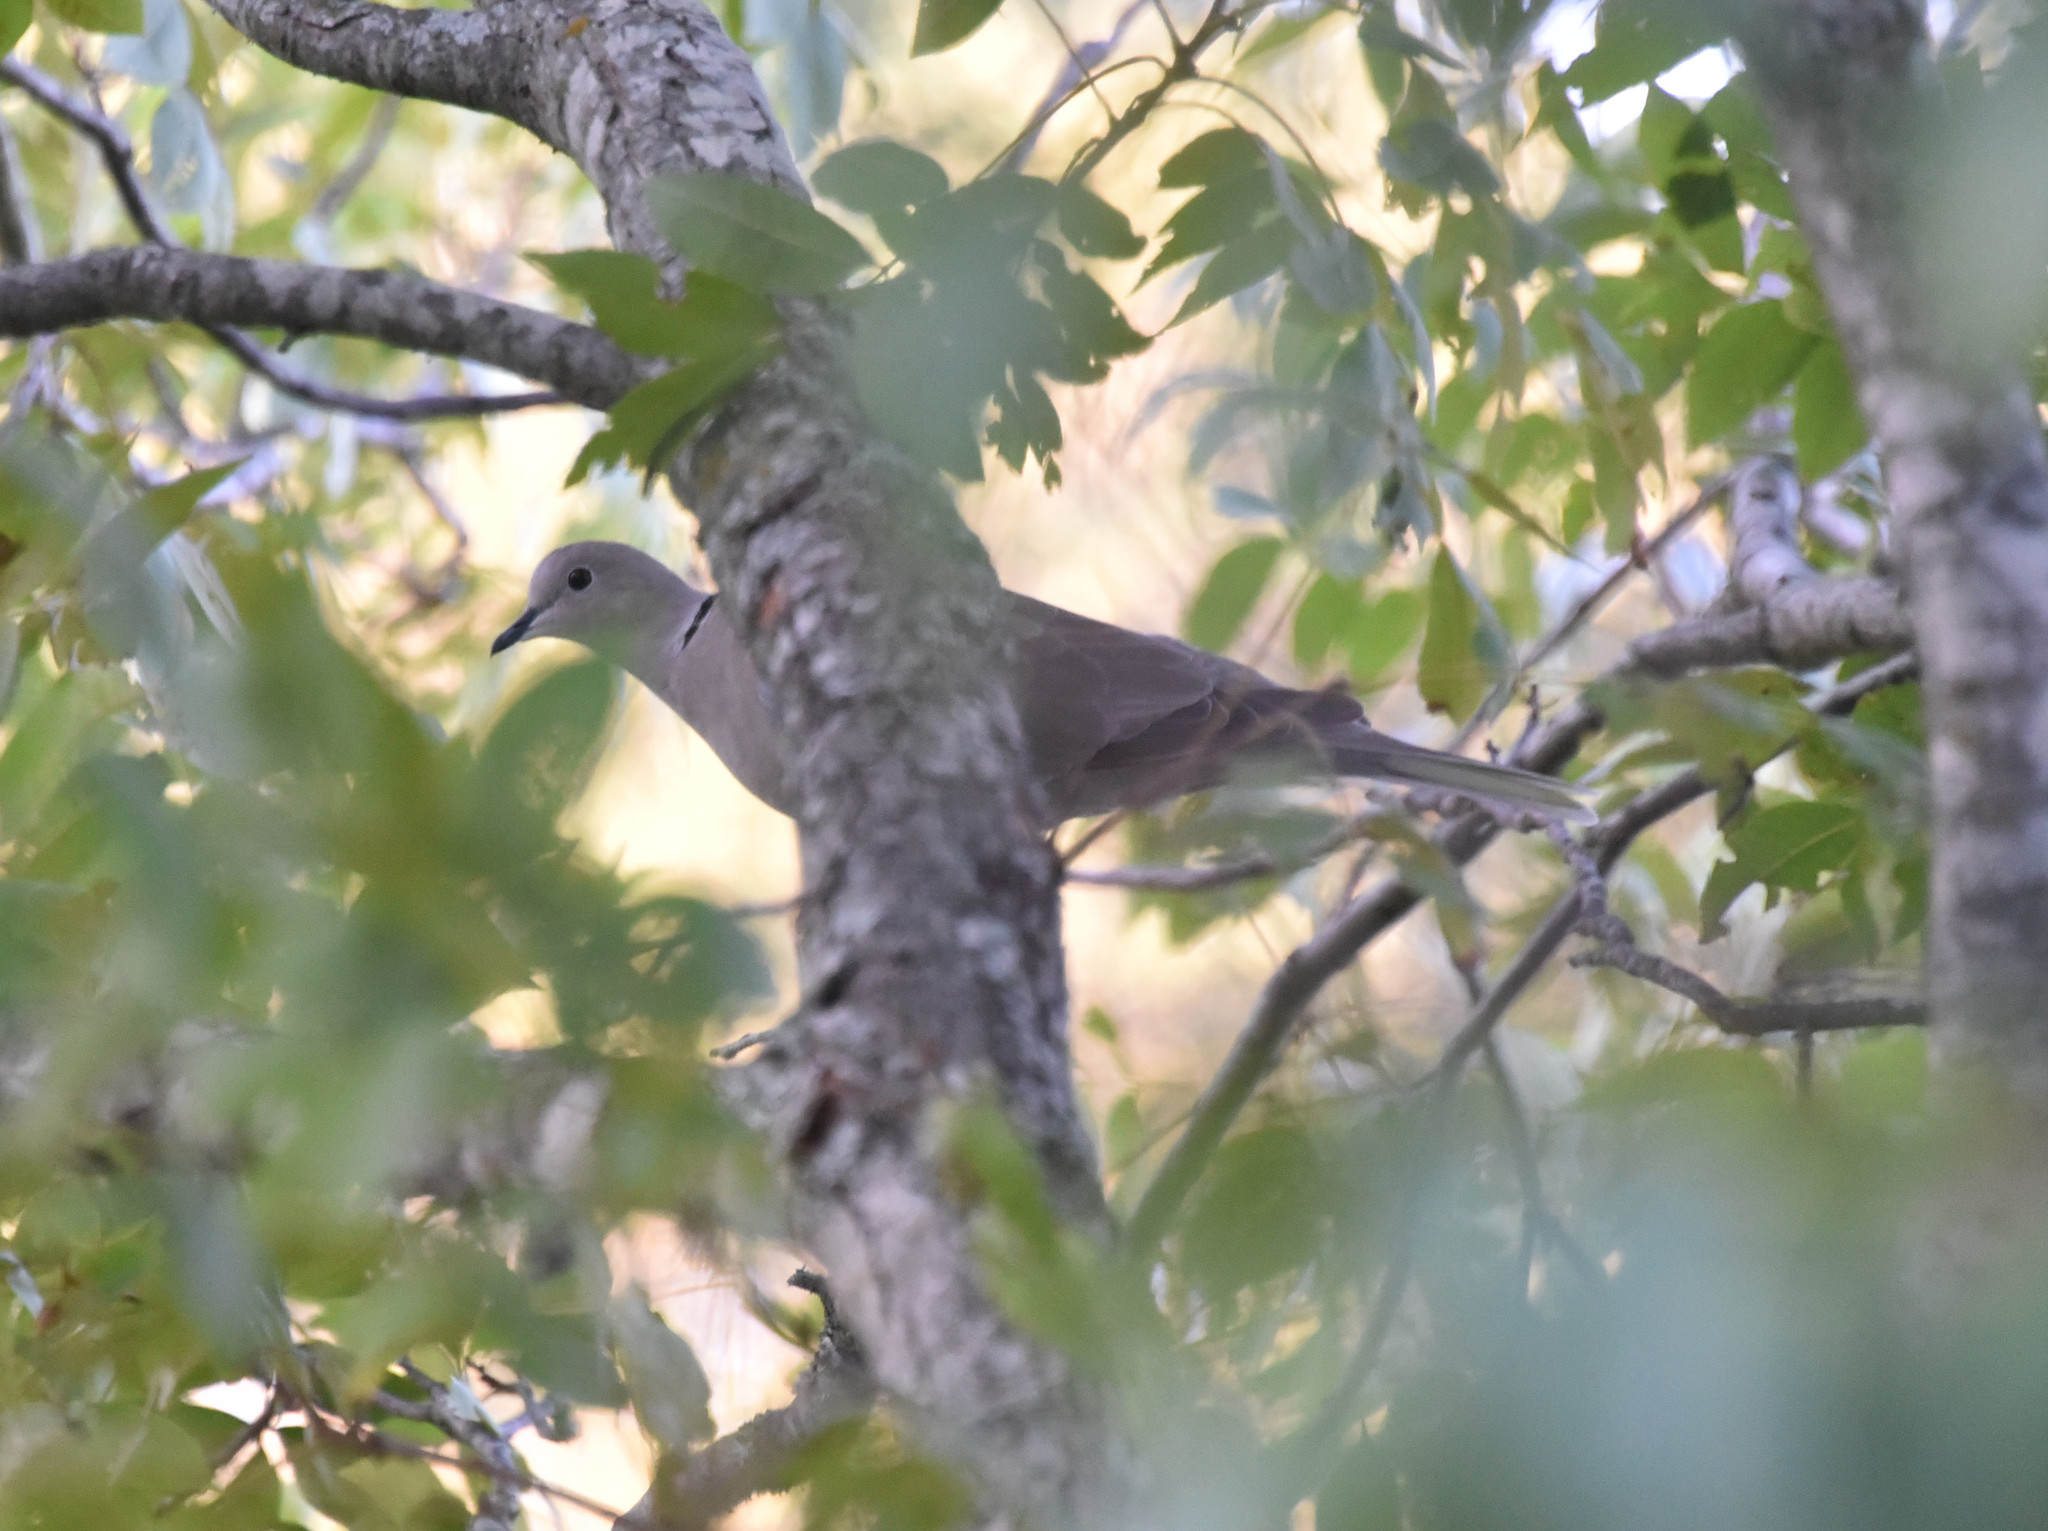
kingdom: Animalia
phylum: Chordata
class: Aves
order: Columbiformes
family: Columbidae
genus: Streptopelia
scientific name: Streptopelia decaocto
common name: Eurasian collared dove
